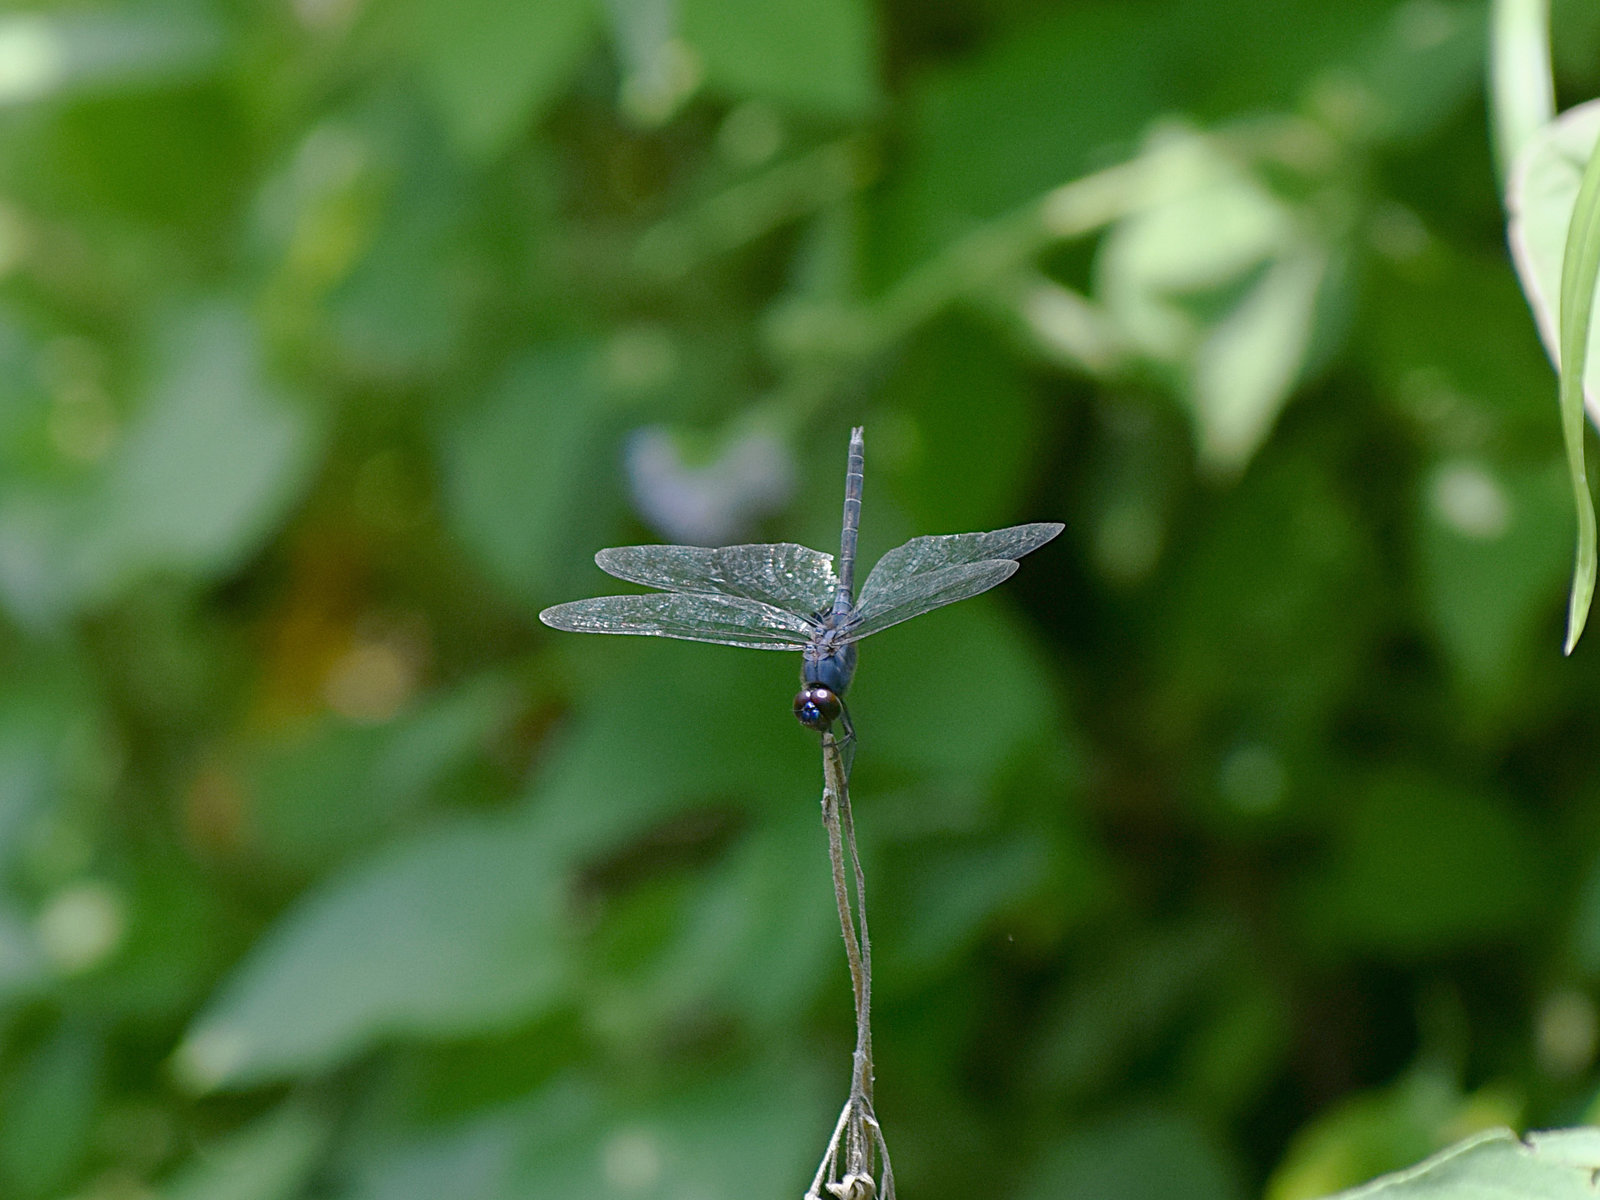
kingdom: Animalia
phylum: Arthropoda
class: Insecta
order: Odonata
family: Libellulidae
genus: Trithemis
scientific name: Trithemis festiva
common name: Indigo dropwing
